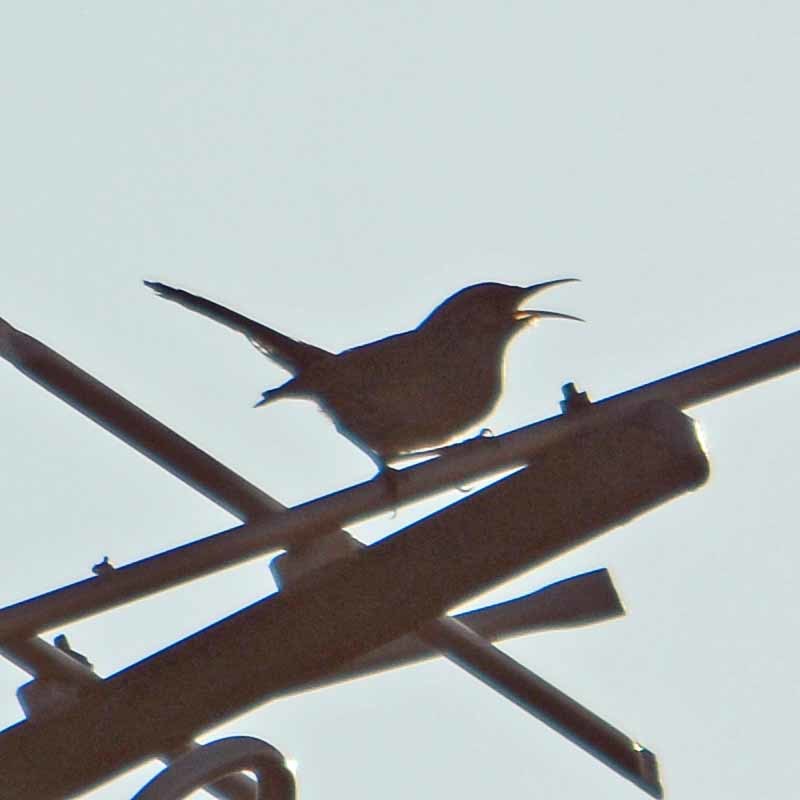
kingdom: Animalia
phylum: Chordata
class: Aves
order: Passeriformes
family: Troglodytidae
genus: Thryomanes
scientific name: Thryomanes bewickii
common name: Bewick's wren
